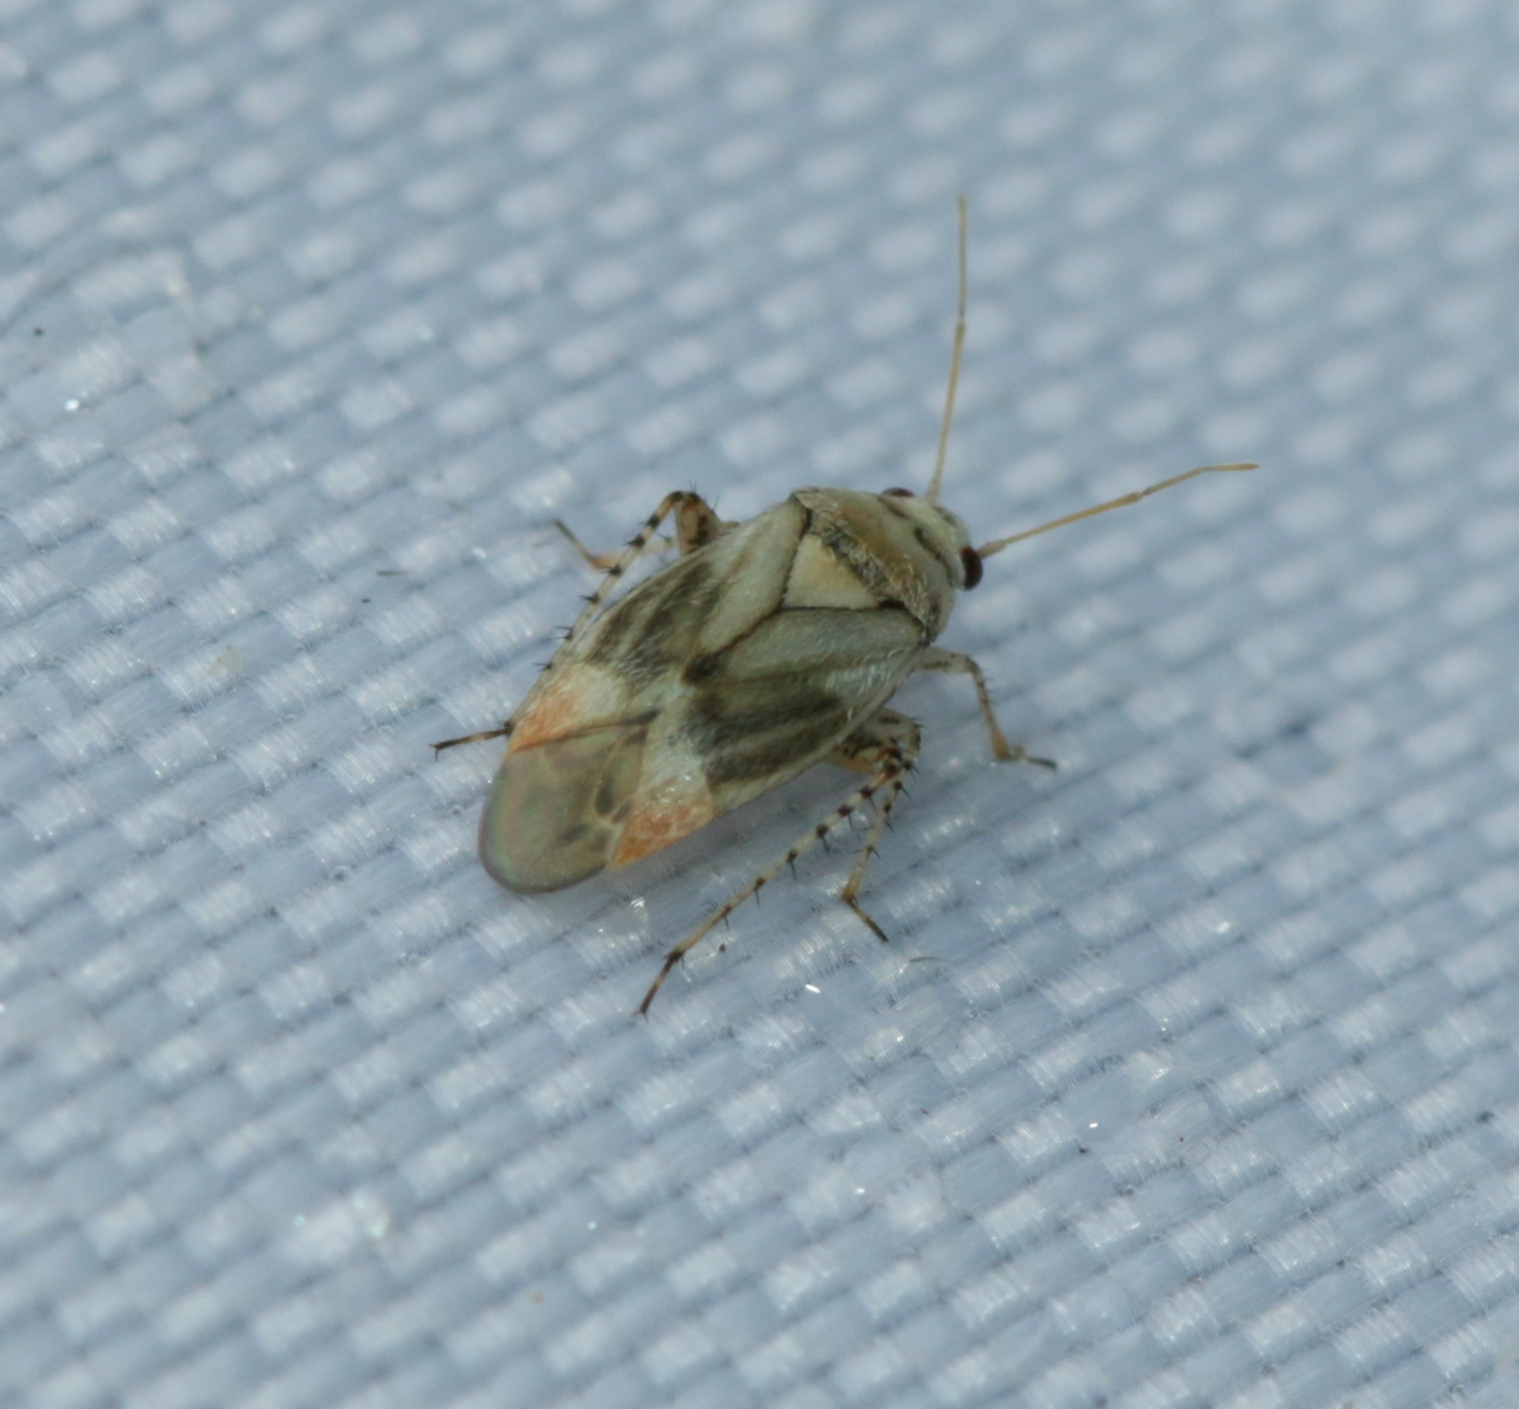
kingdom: Animalia
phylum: Arthropoda
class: Insecta
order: Hemiptera
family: Miridae
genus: Sthenarus
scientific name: Sthenarus rotermundi
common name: Leaf bug
